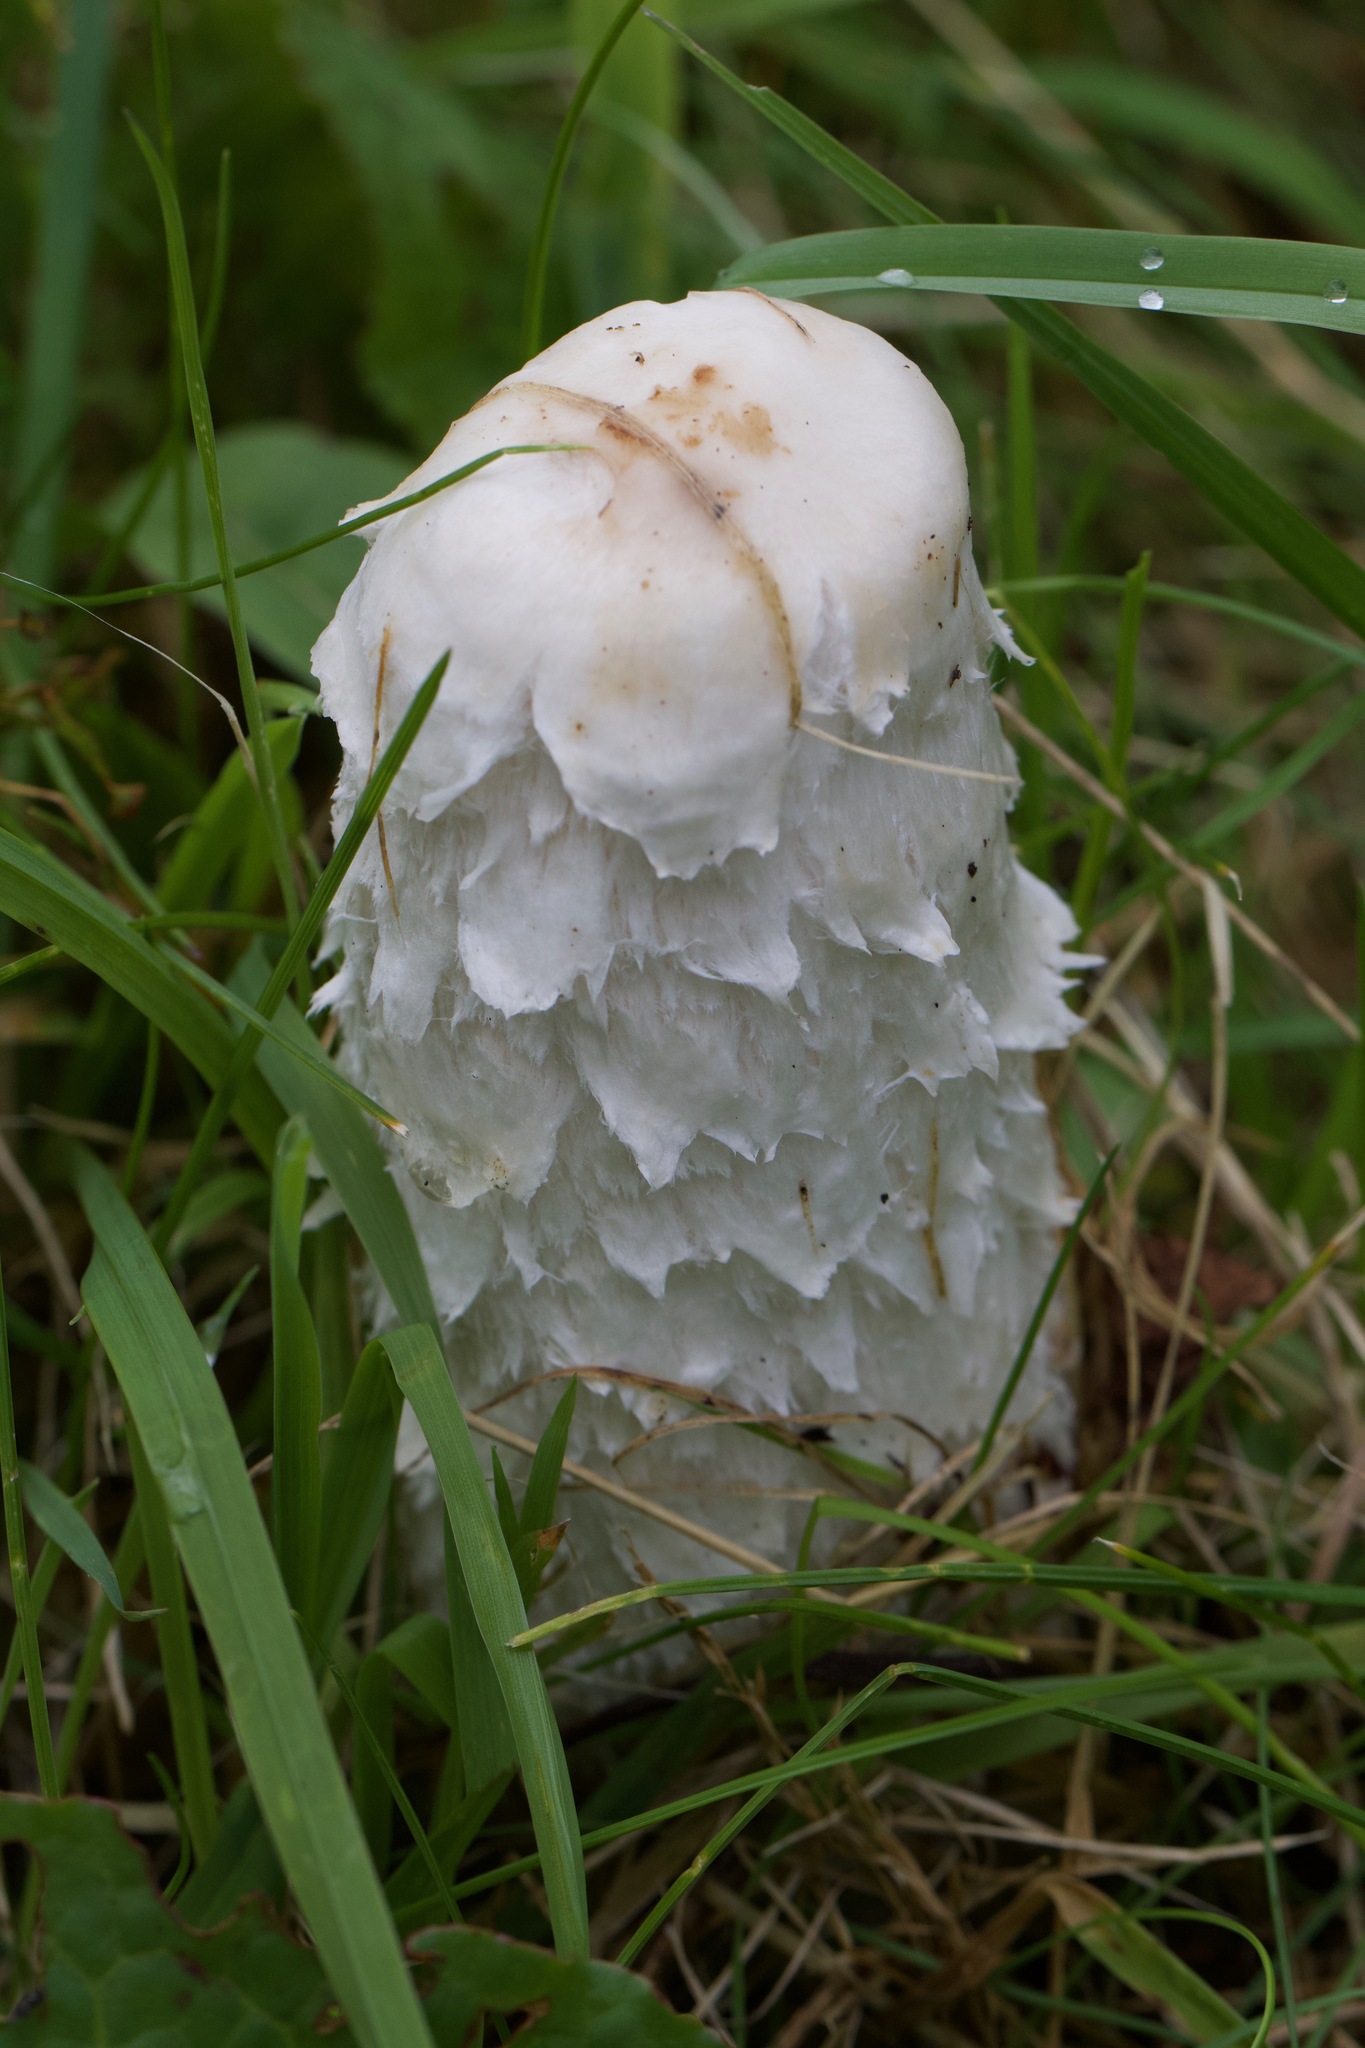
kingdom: Fungi
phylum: Basidiomycota
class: Agaricomycetes
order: Agaricales
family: Agaricaceae
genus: Coprinus
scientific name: Coprinus comatus
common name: Lawyer's wig
